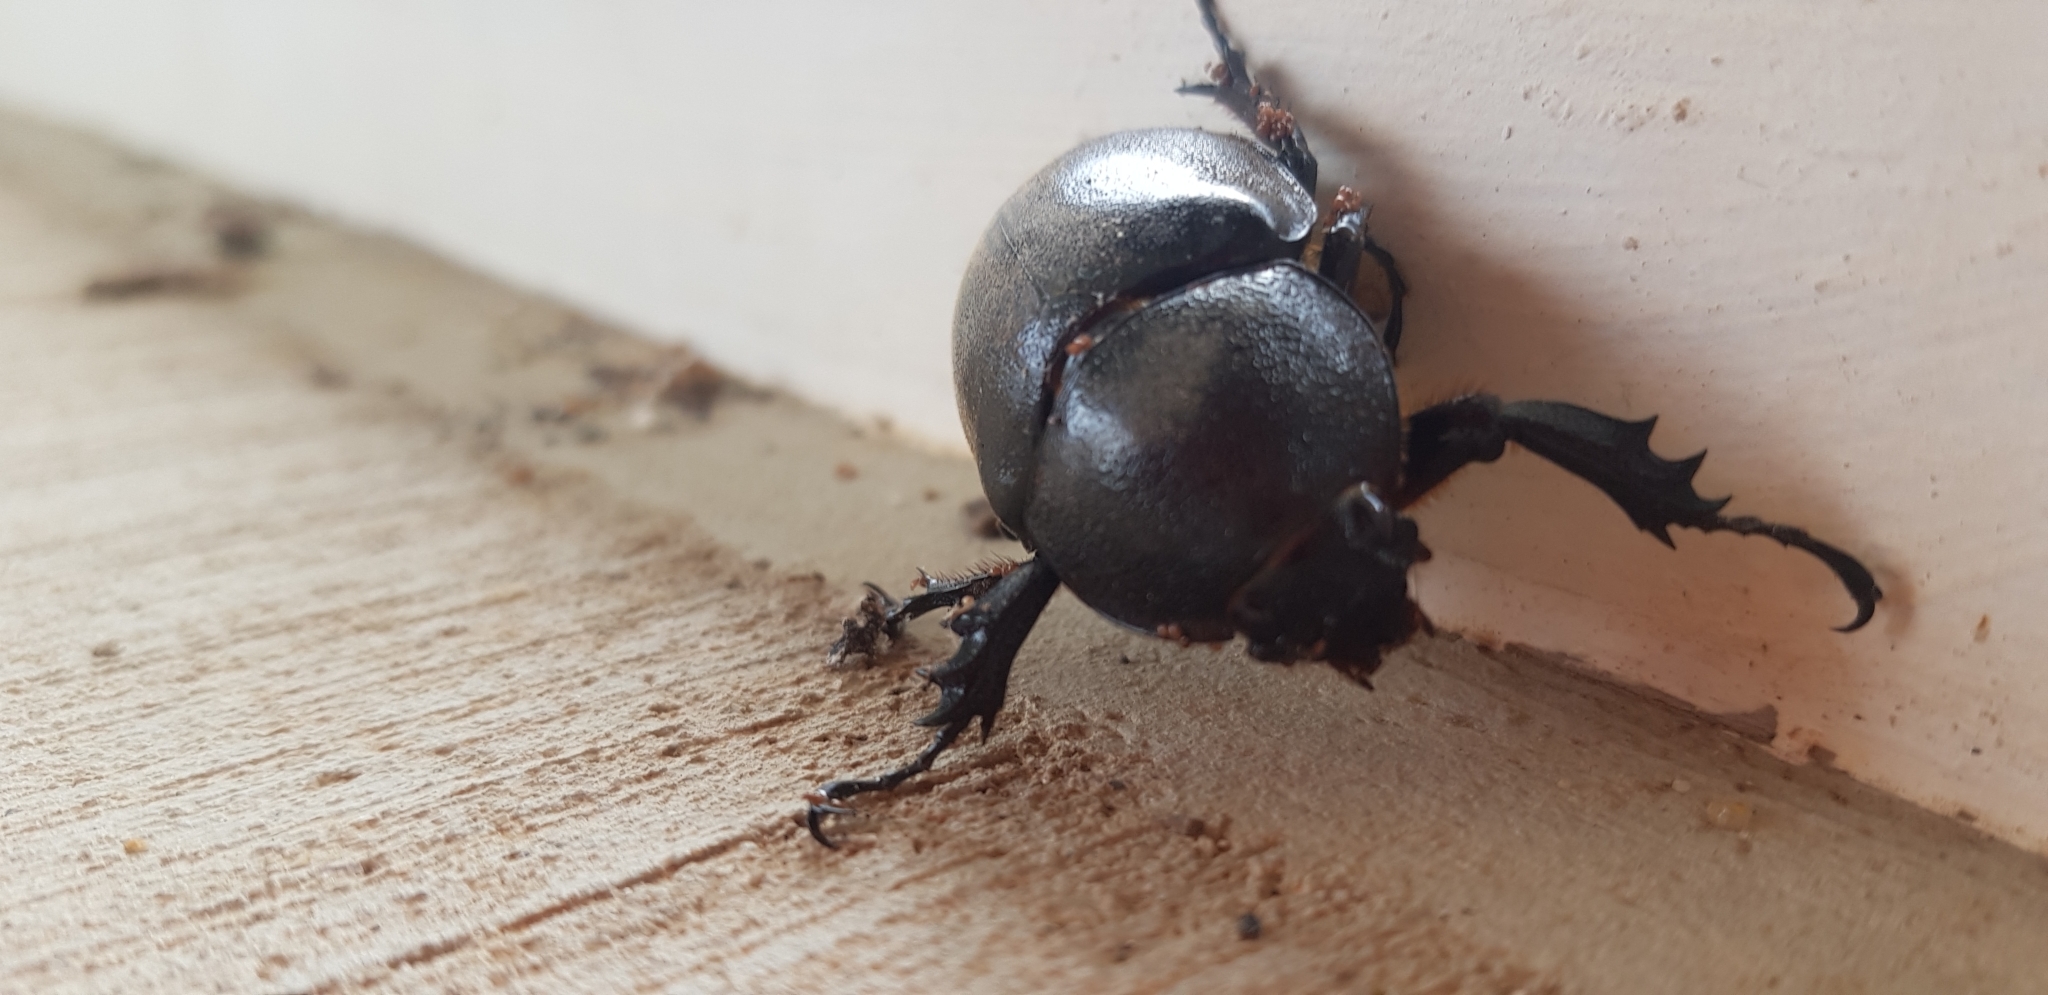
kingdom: Animalia
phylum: Arthropoda
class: Insecta
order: Coleoptera
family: Scarabaeidae
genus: Xylotrupes
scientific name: Xylotrupes australicus
